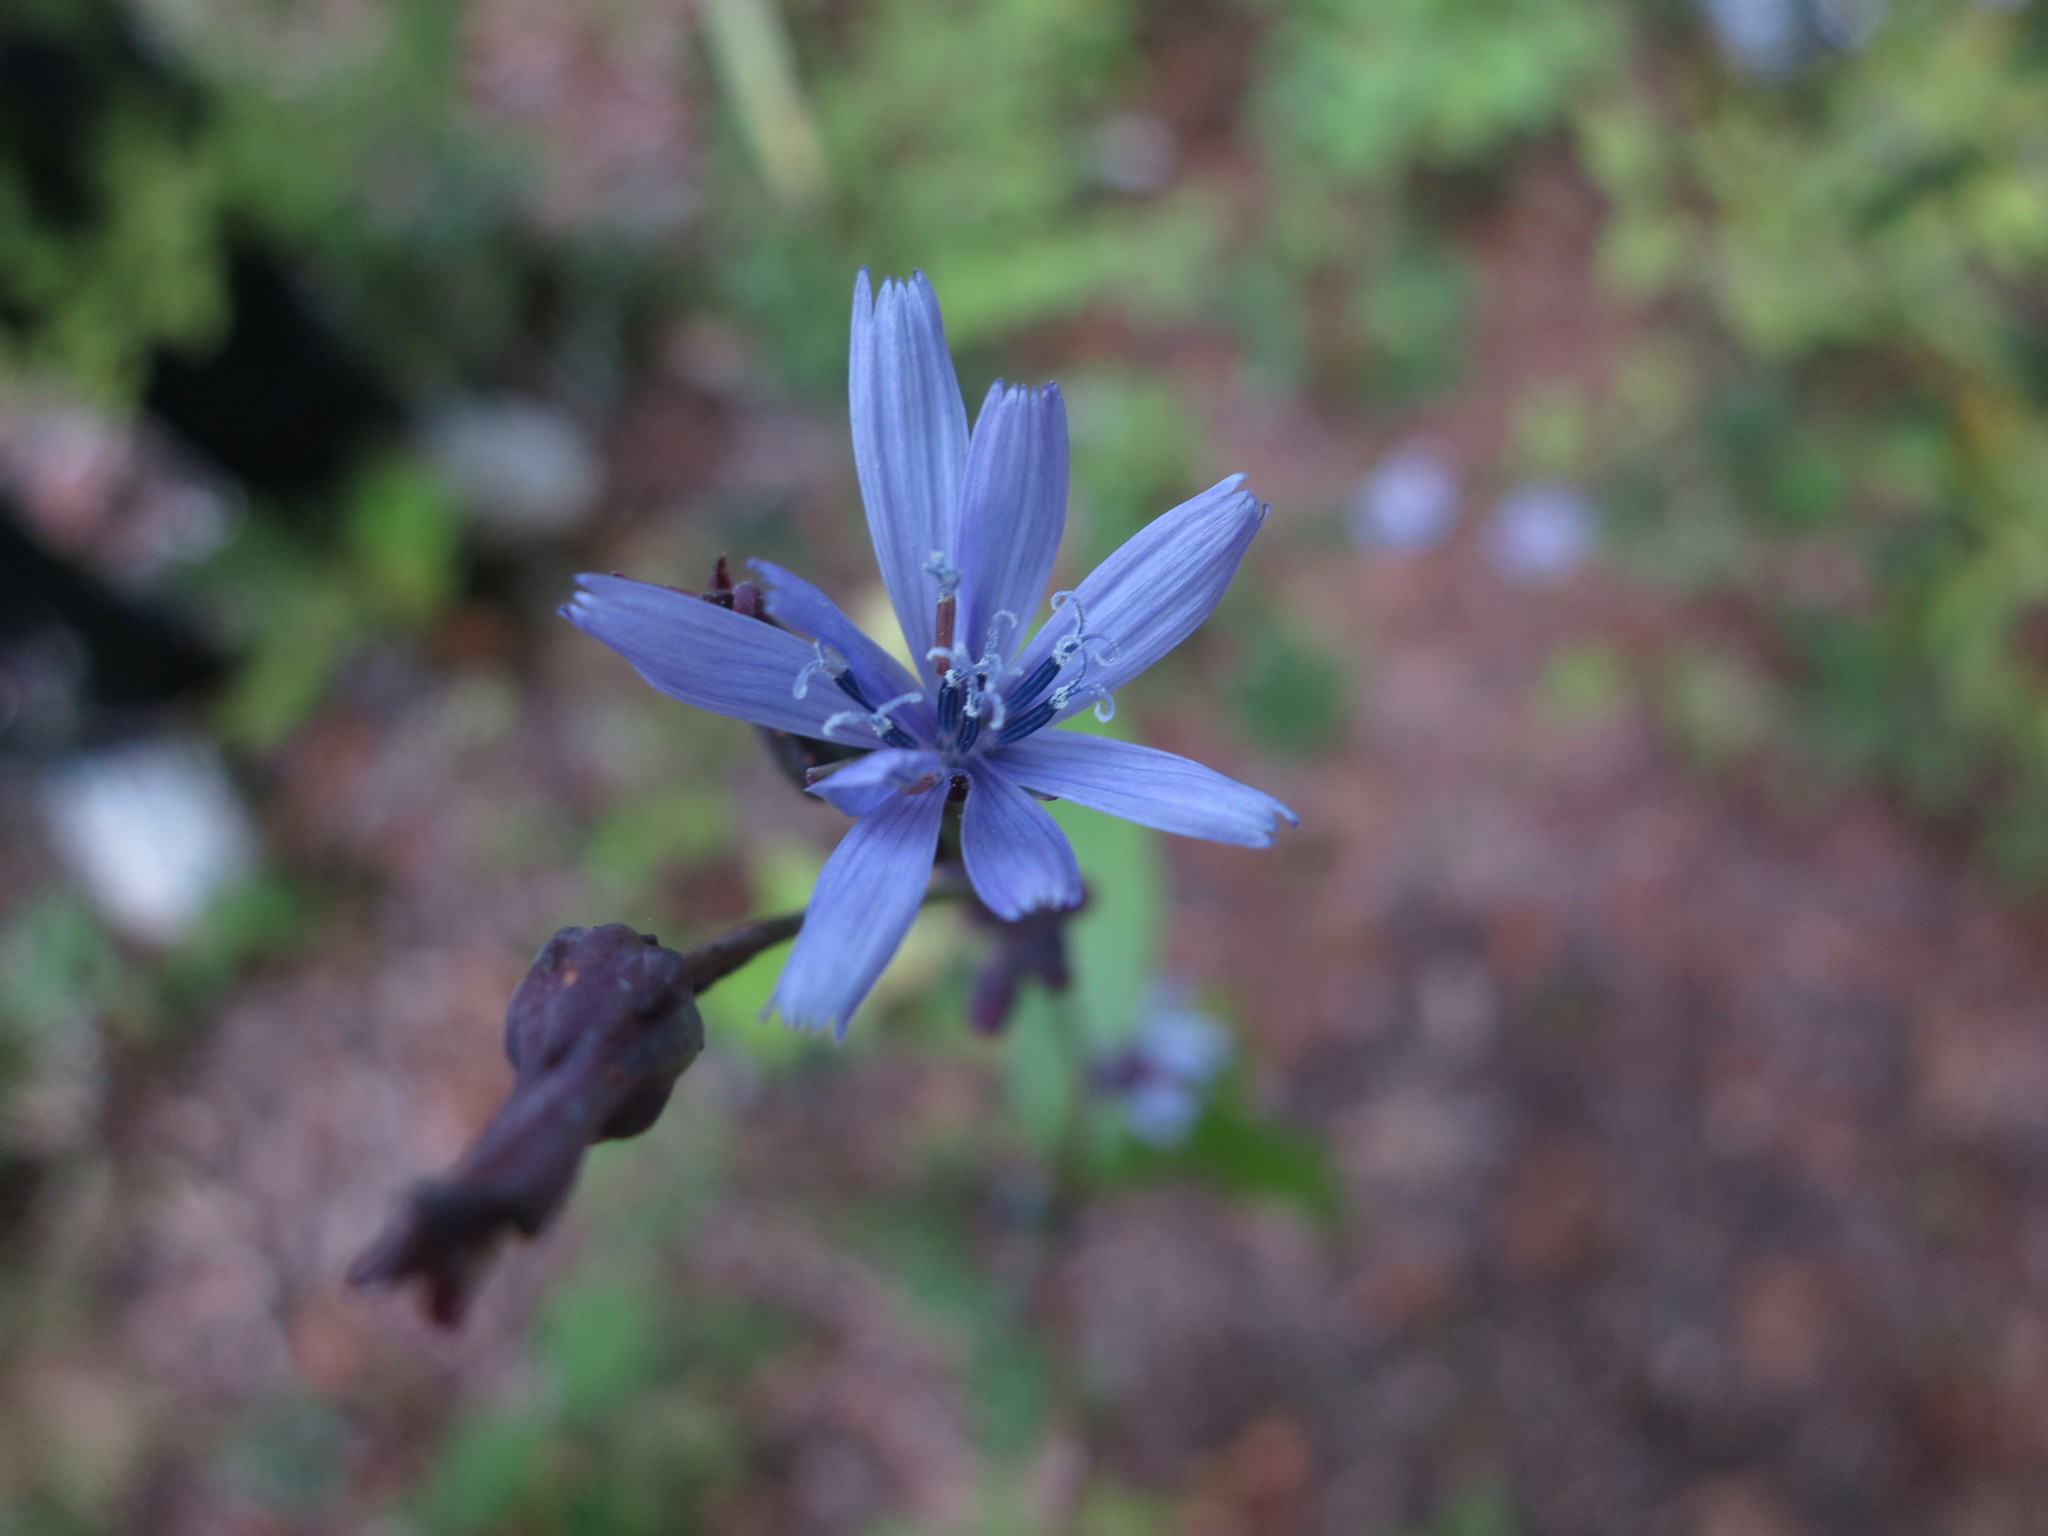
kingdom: Plantae
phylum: Tracheophyta
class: Magnoliopsida
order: Asterales
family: Asteraceae
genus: Lactuca
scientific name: Lactuca floridana
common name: Woodland lettuce
